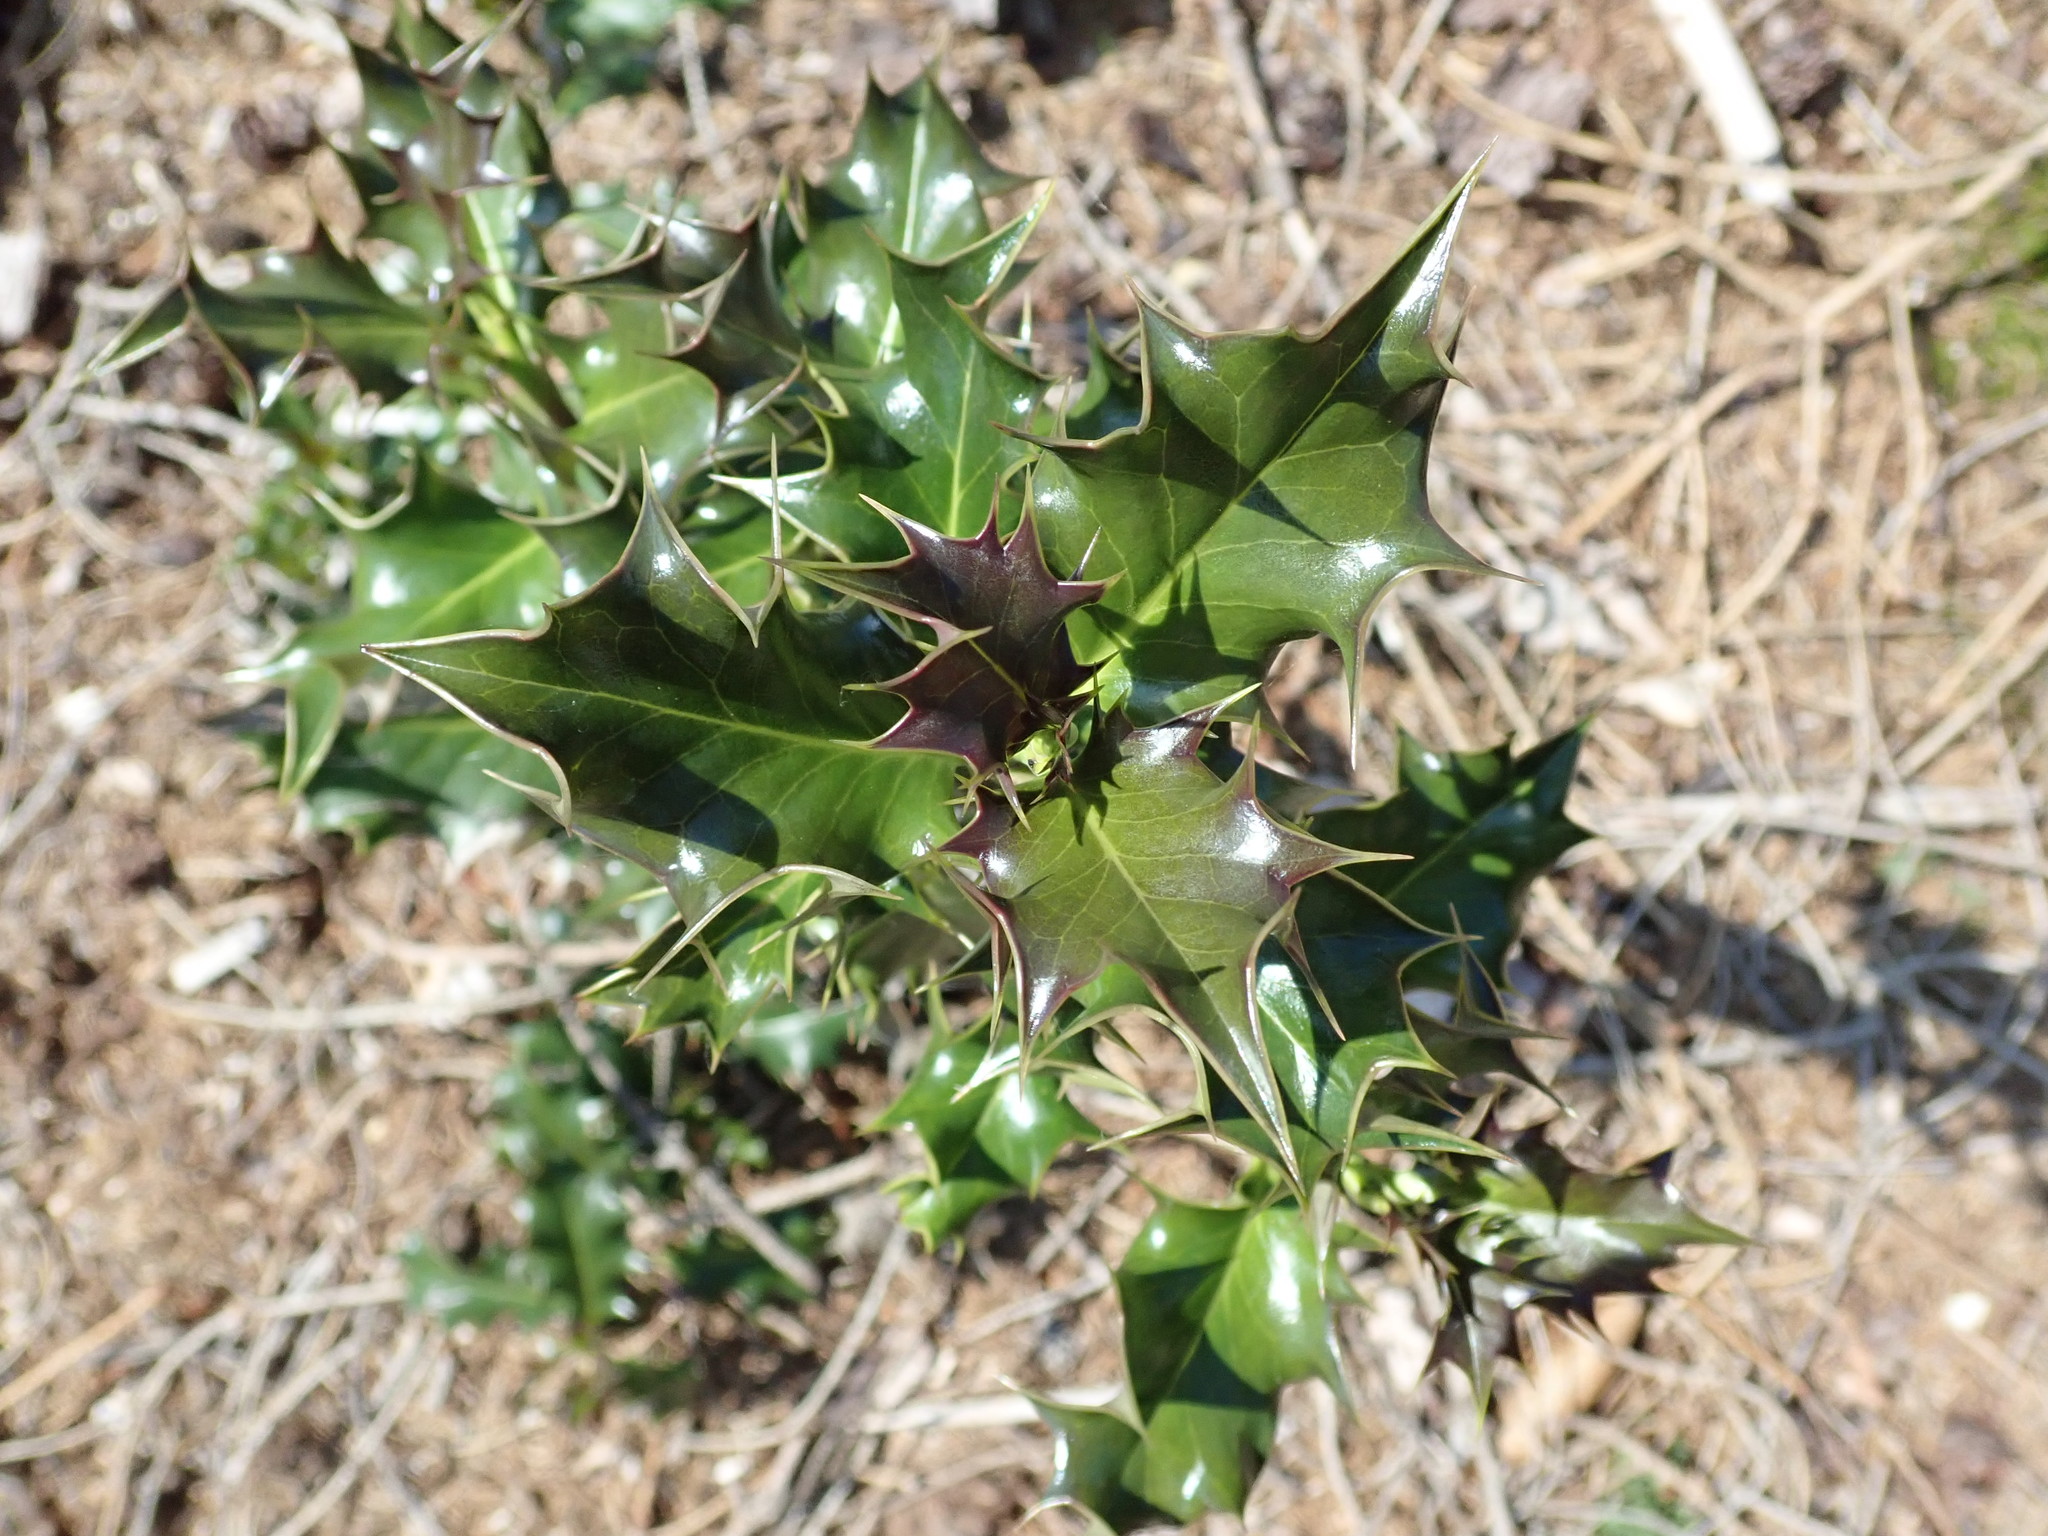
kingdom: Plantae
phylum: Tracheophyta
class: Magnoliopsida
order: Aquifoliales
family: Aquifoliaceae
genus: Ilex
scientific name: Ilex aquifolium
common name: English holly
